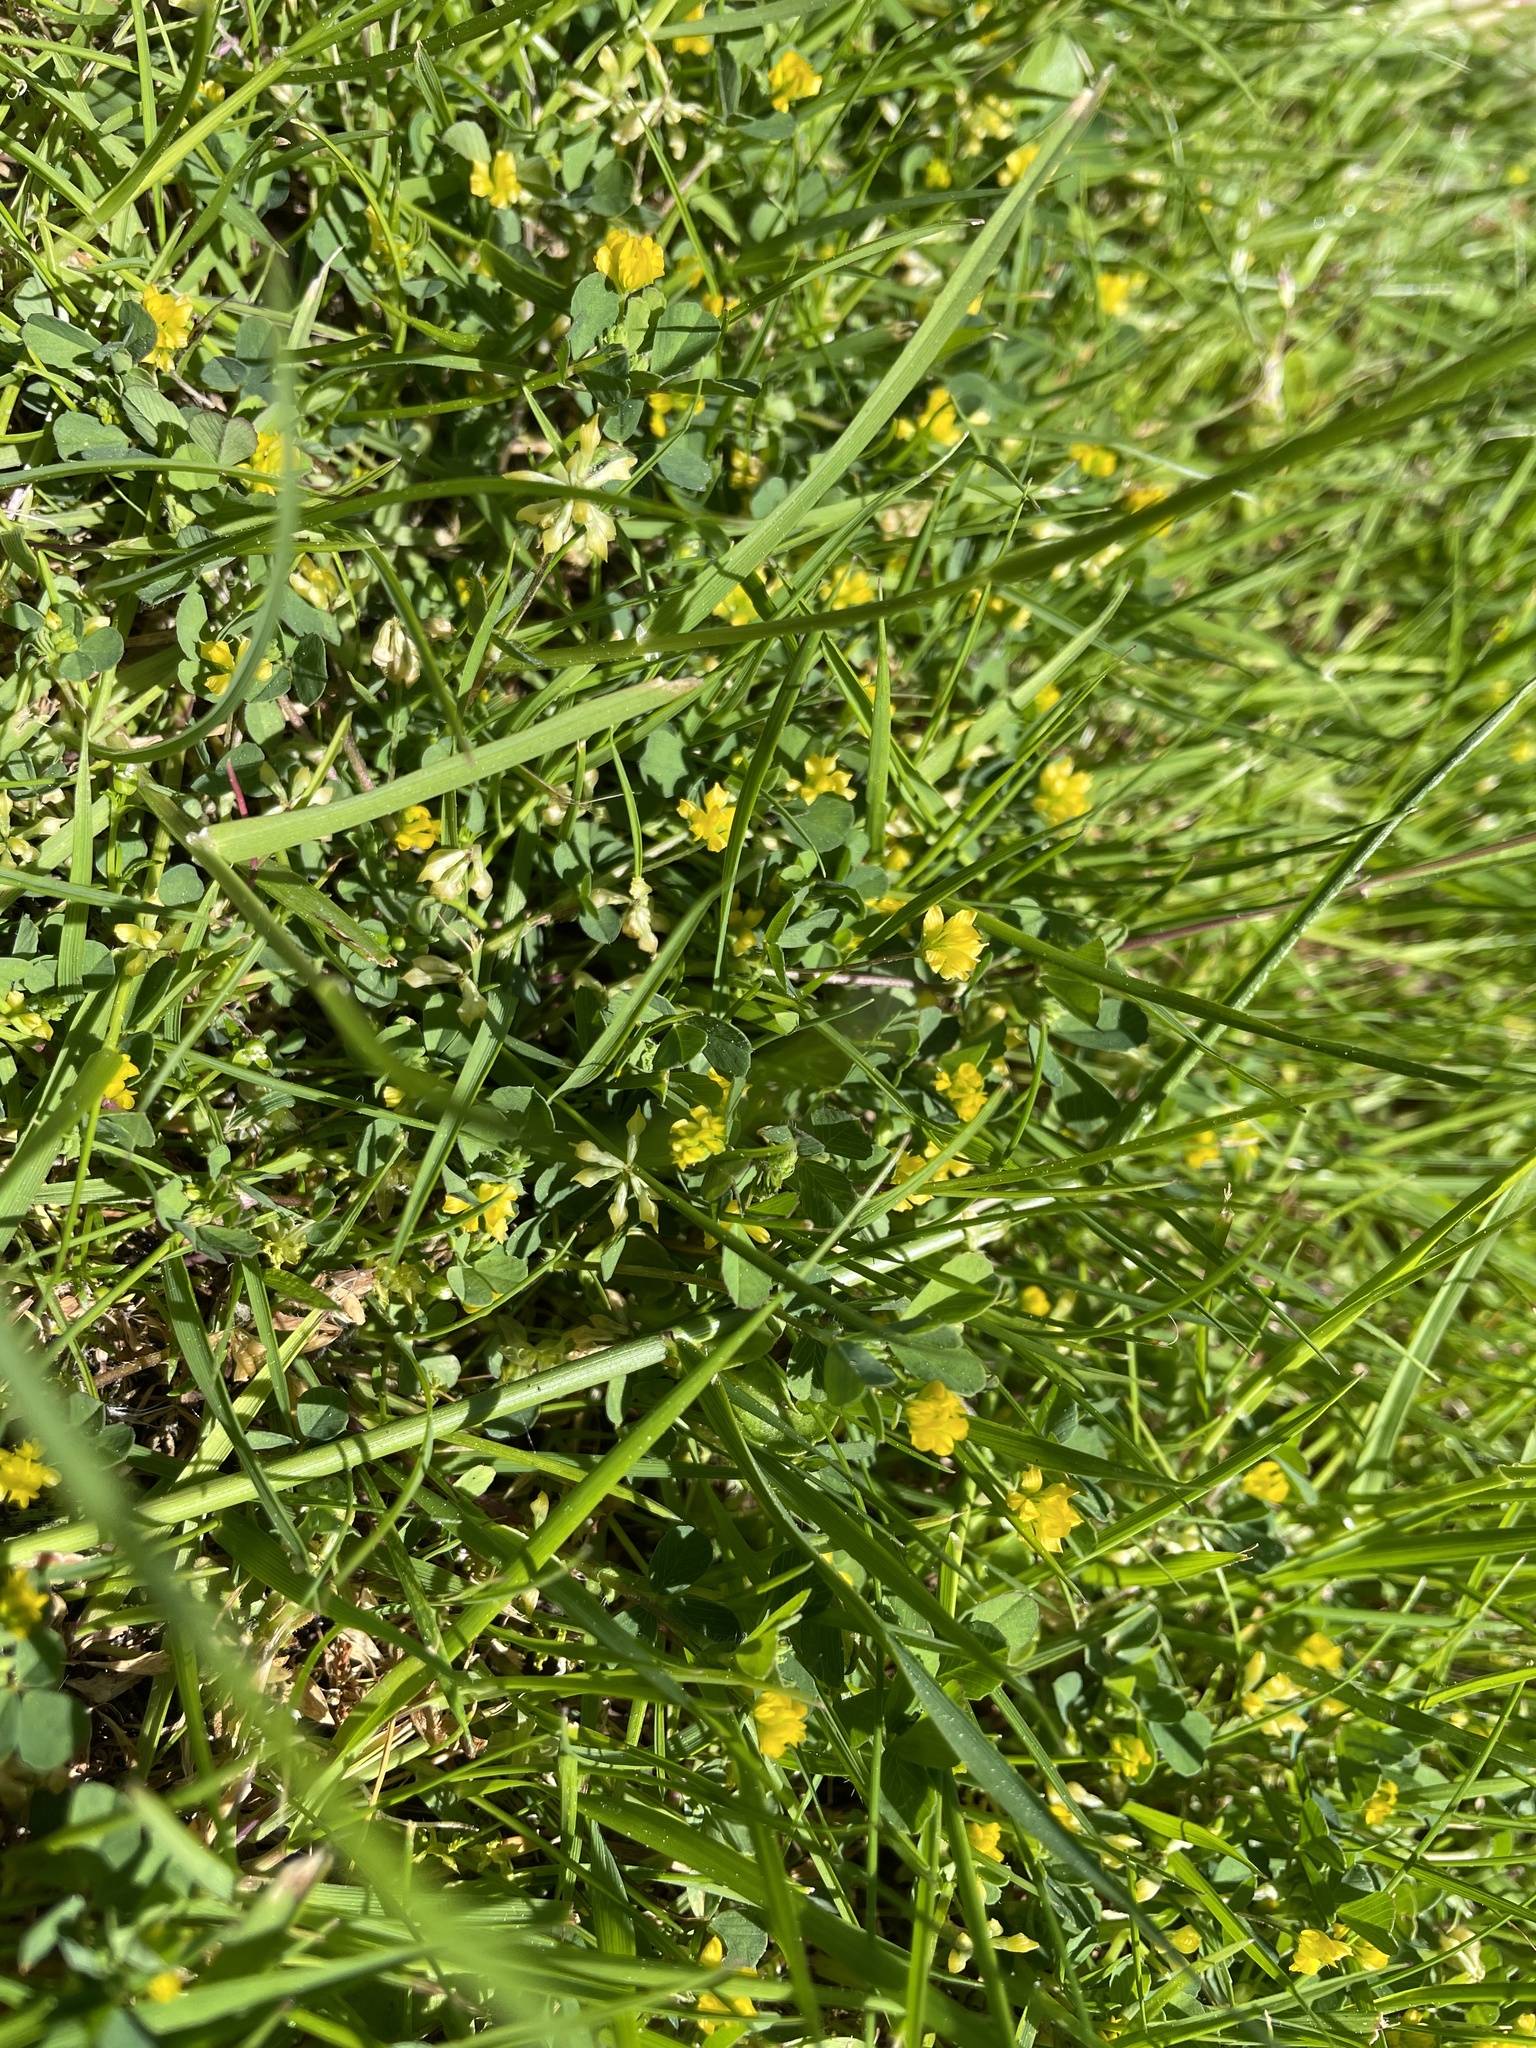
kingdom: Plantae
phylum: Tracheophyta
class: Magnoliopsida
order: Fabales
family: Fabaceae
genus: Trifolium
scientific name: Trifolium dubium
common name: Suckling clover
